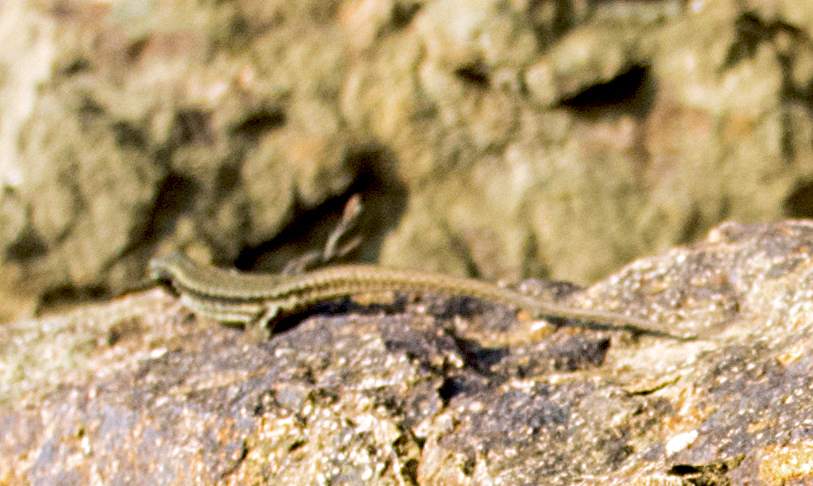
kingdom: Animalia
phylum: Chordata
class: Squamata
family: Lacertidae
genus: Podarcis
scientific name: Podarcis muralis
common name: Common wall lizard
